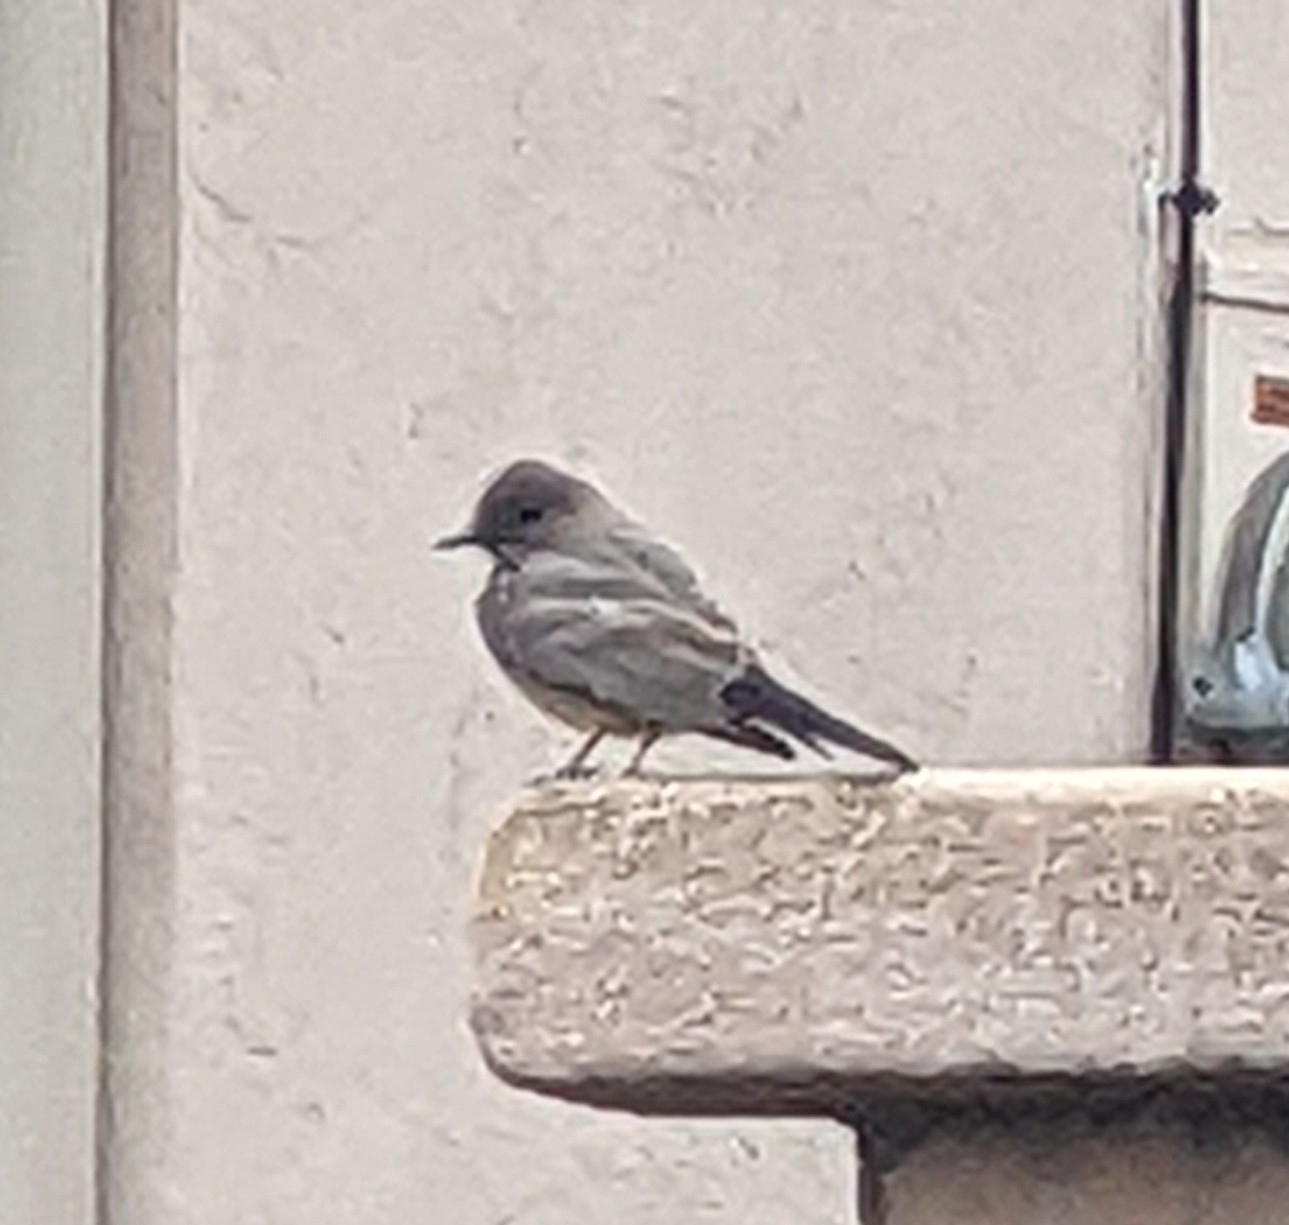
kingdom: Animalia
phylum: Chordata
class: Aves
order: Passeriformes
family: Tyrannidae
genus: Sayornis
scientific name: Sayornis saya
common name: Say's phoebe
